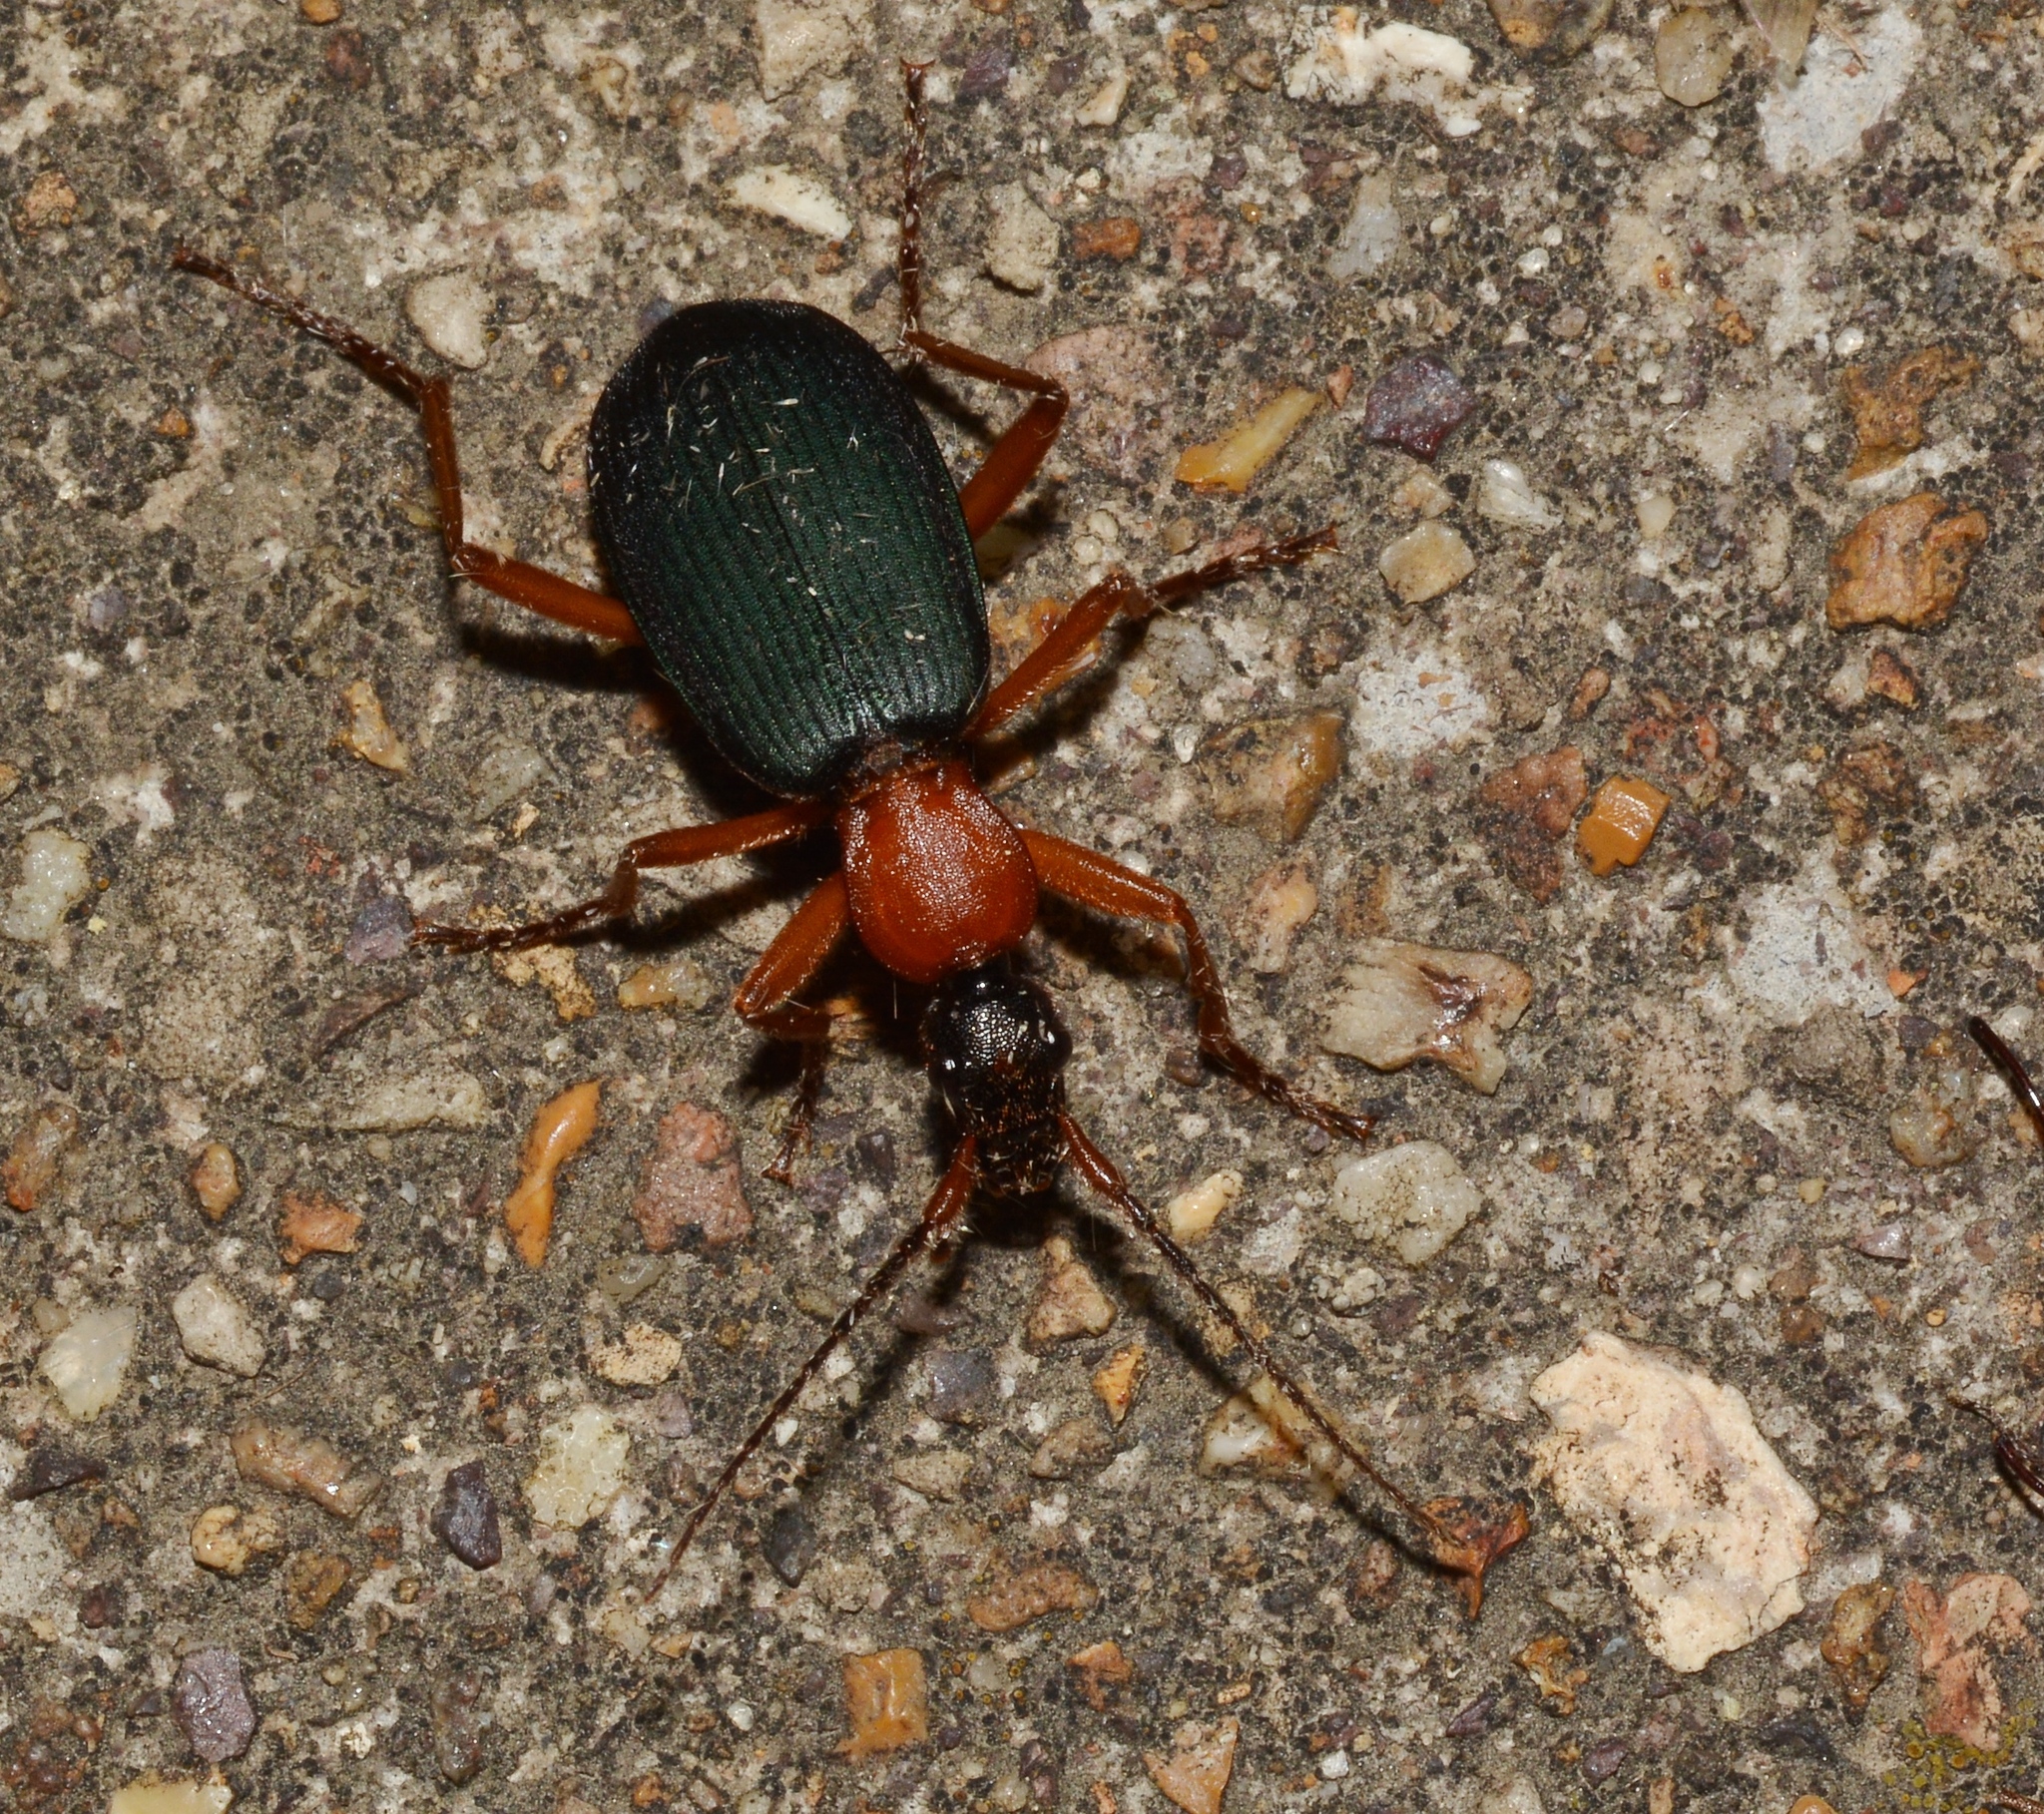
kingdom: Animalia
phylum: Arthropoda
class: Insecta
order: Coleoptera
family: Carabidae
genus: Galerita
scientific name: Galerita bicolor
